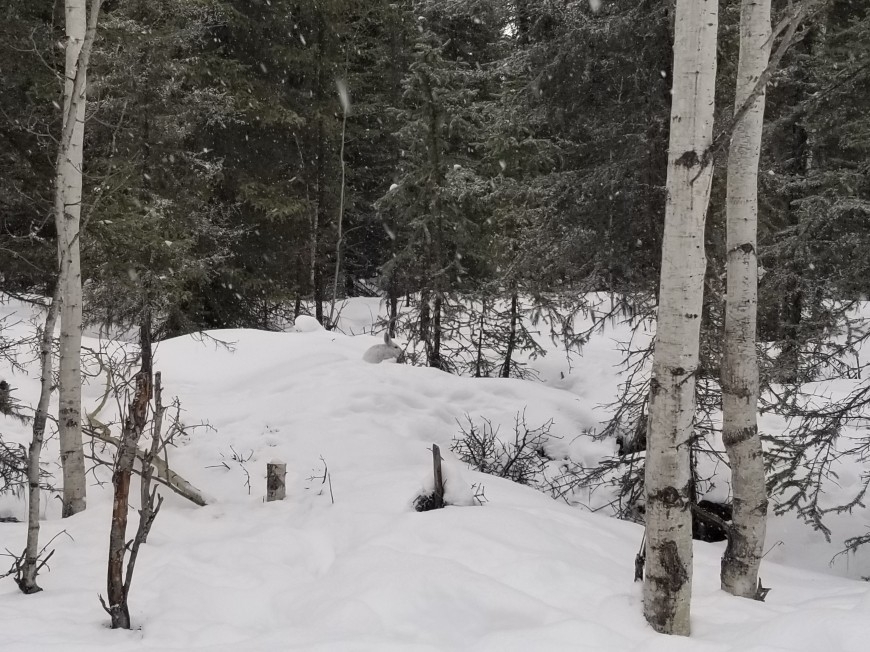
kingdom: Animalia
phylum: Chordata
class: Mammalia
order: Lagomorpha
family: Leporidae
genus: Lepus
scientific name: Lepus americanus
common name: Snowshoe hare
